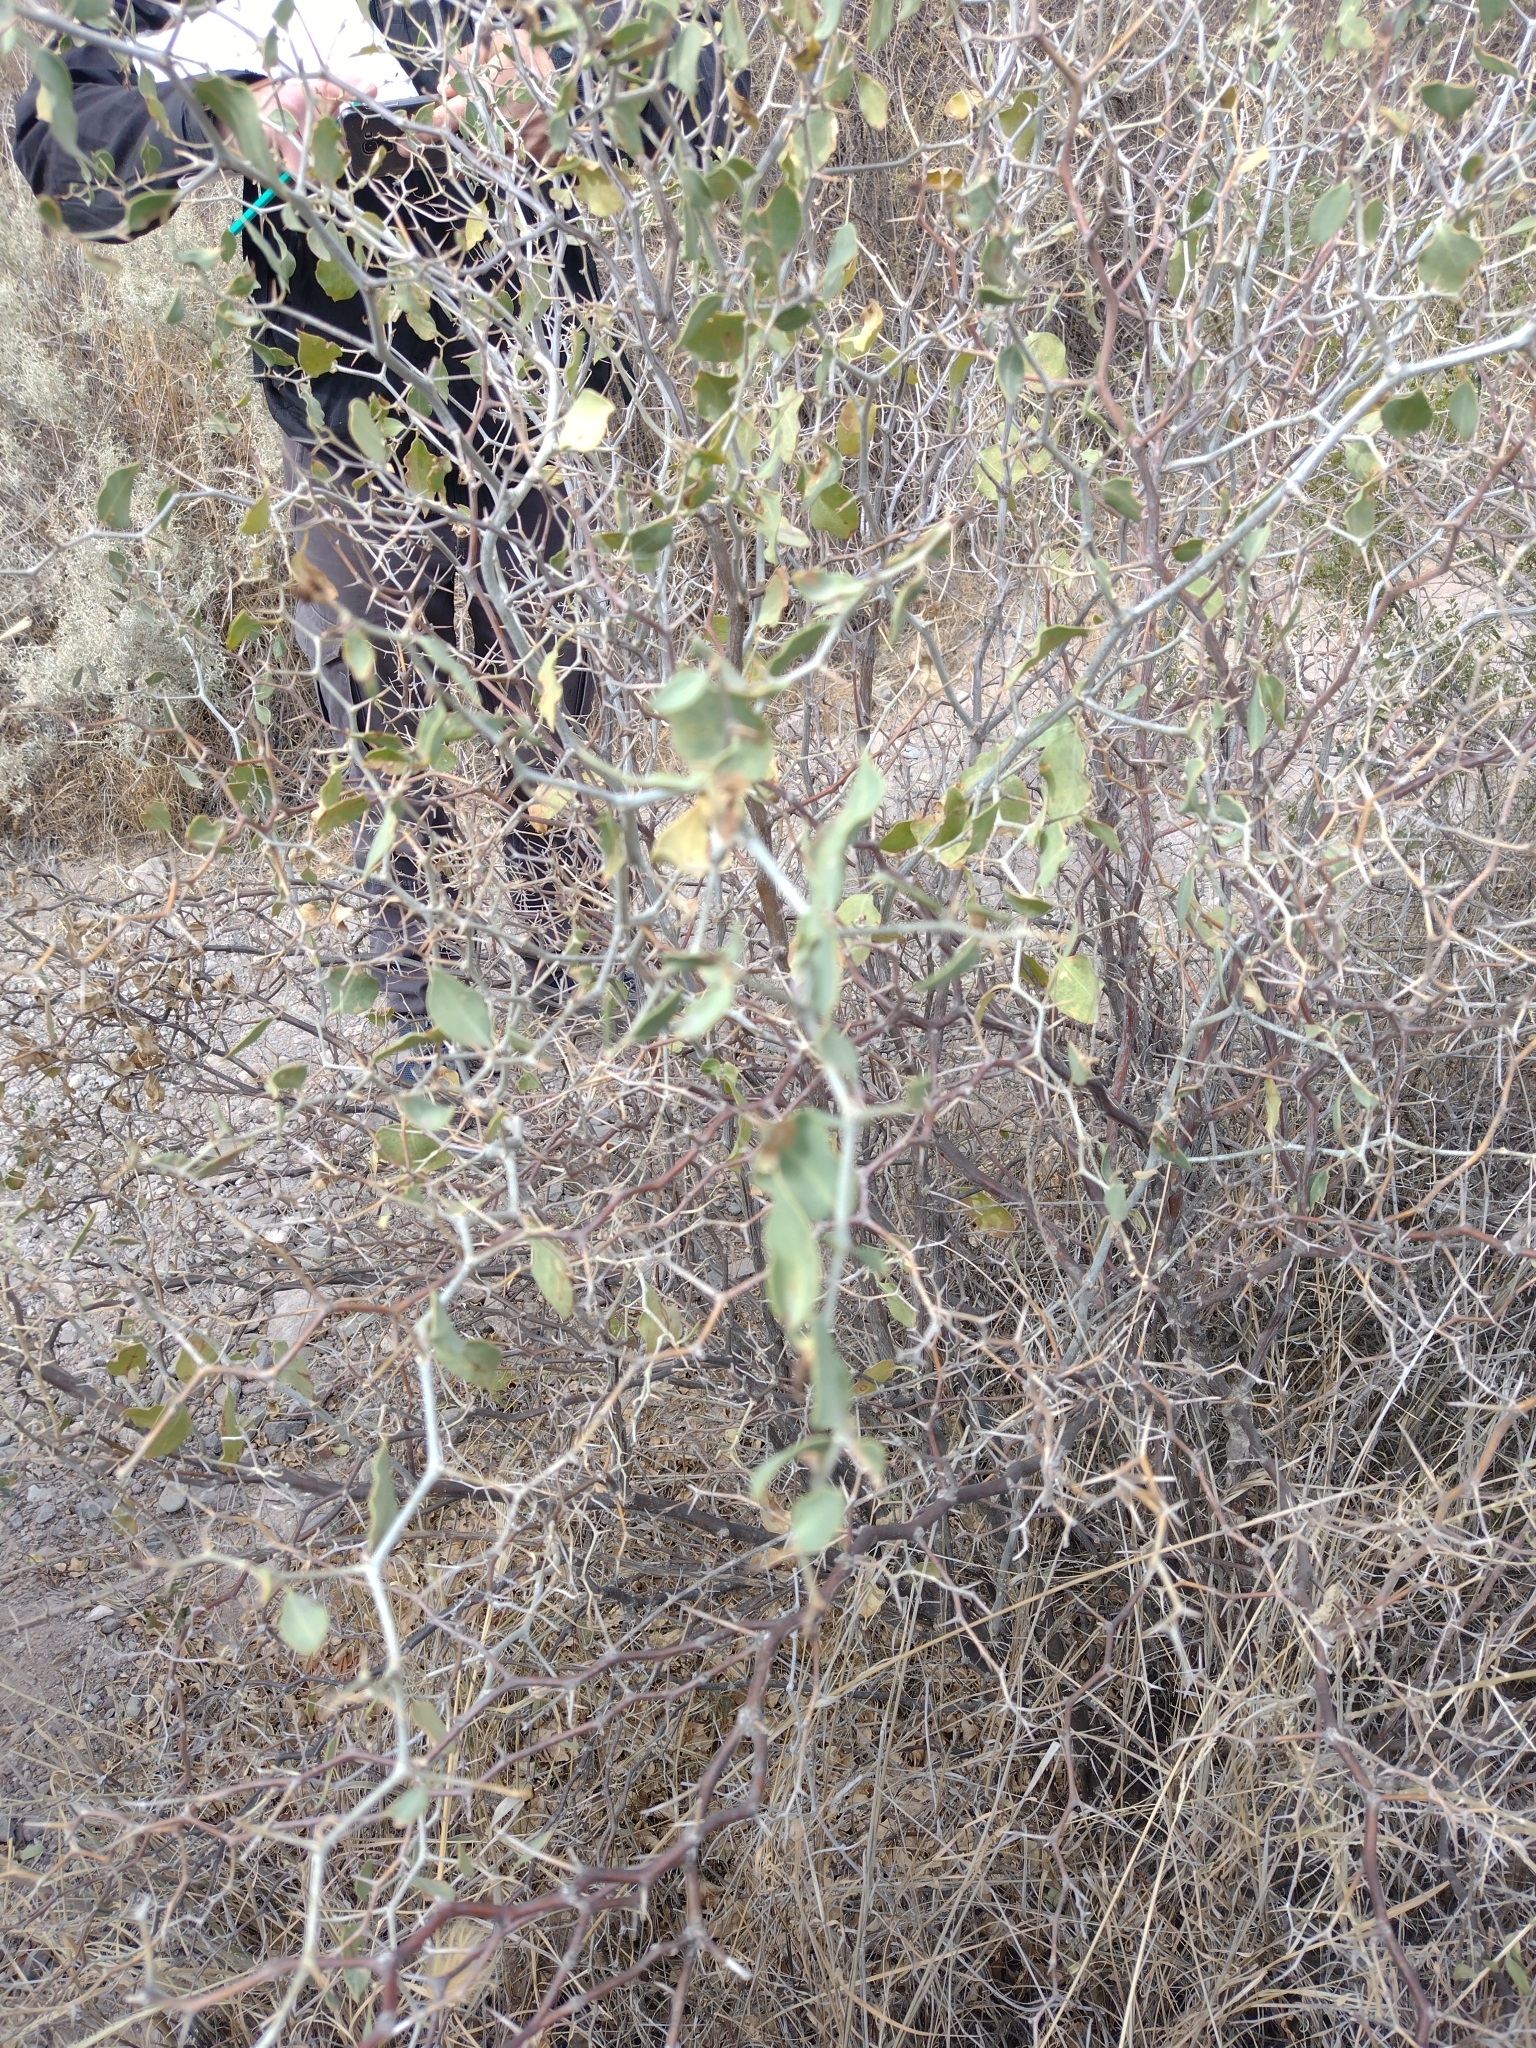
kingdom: Plantae
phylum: Tracheophyta
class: Magnoliopsida
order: Solanales
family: Solanaceae
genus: Lycium
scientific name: Lycium boerhaaviifolium
